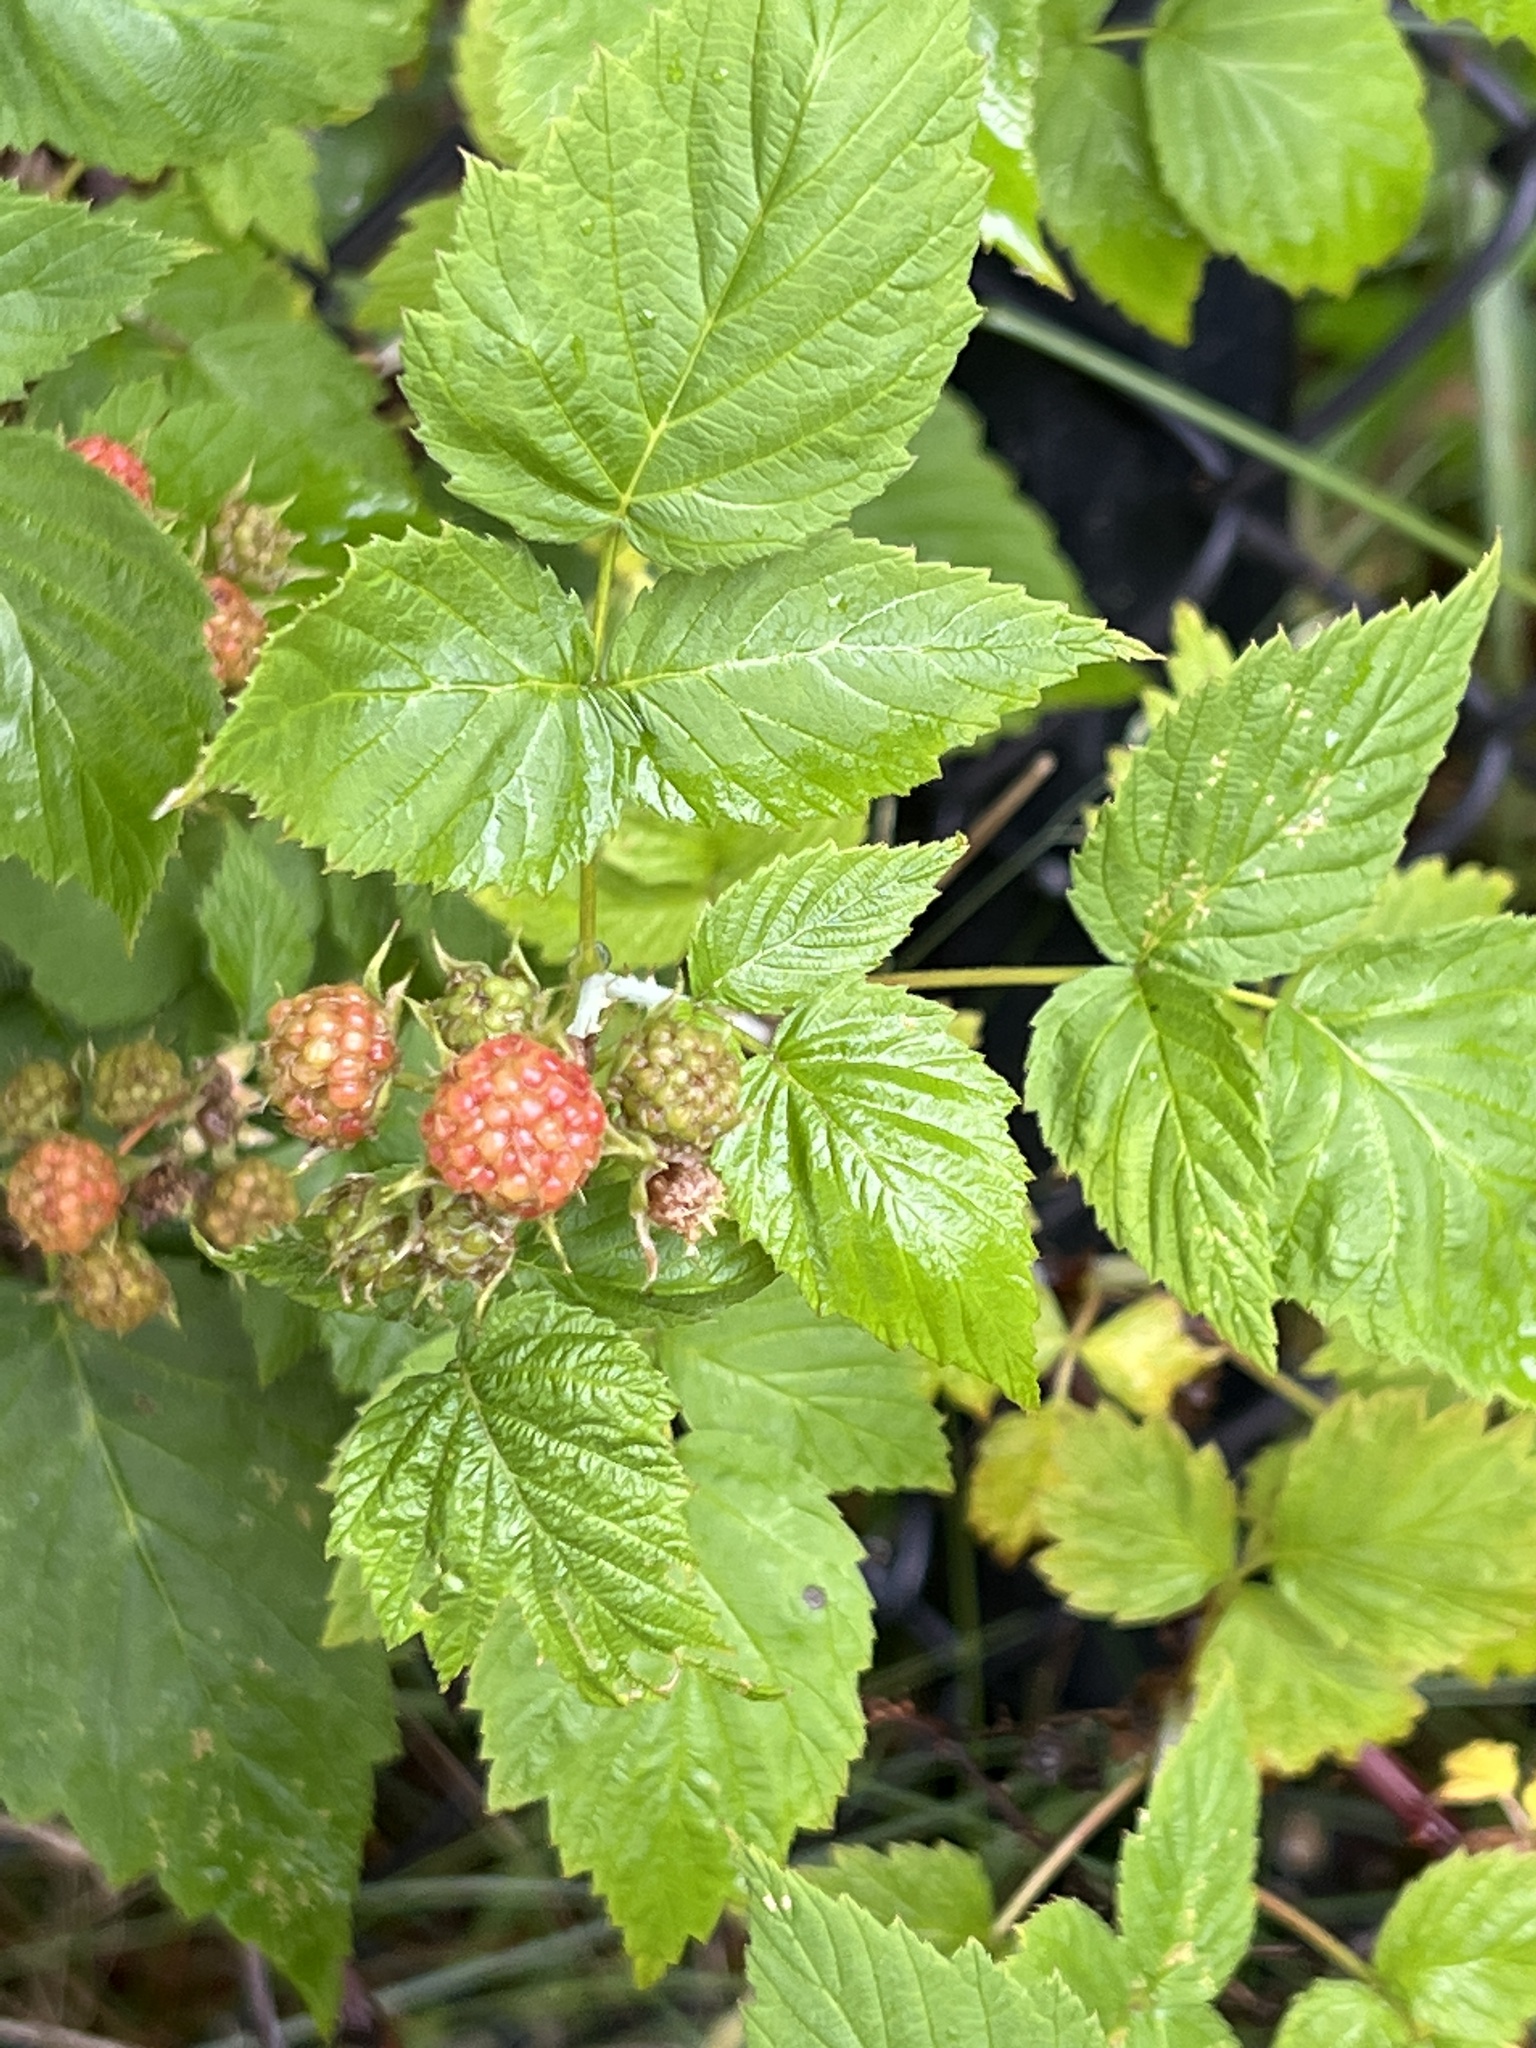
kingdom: Plantae
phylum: Tracheophyta
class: Magnoliopsida
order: Rosales
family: Rosaceae
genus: Rubus
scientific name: Rubus occidentalis
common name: Black raspberry
